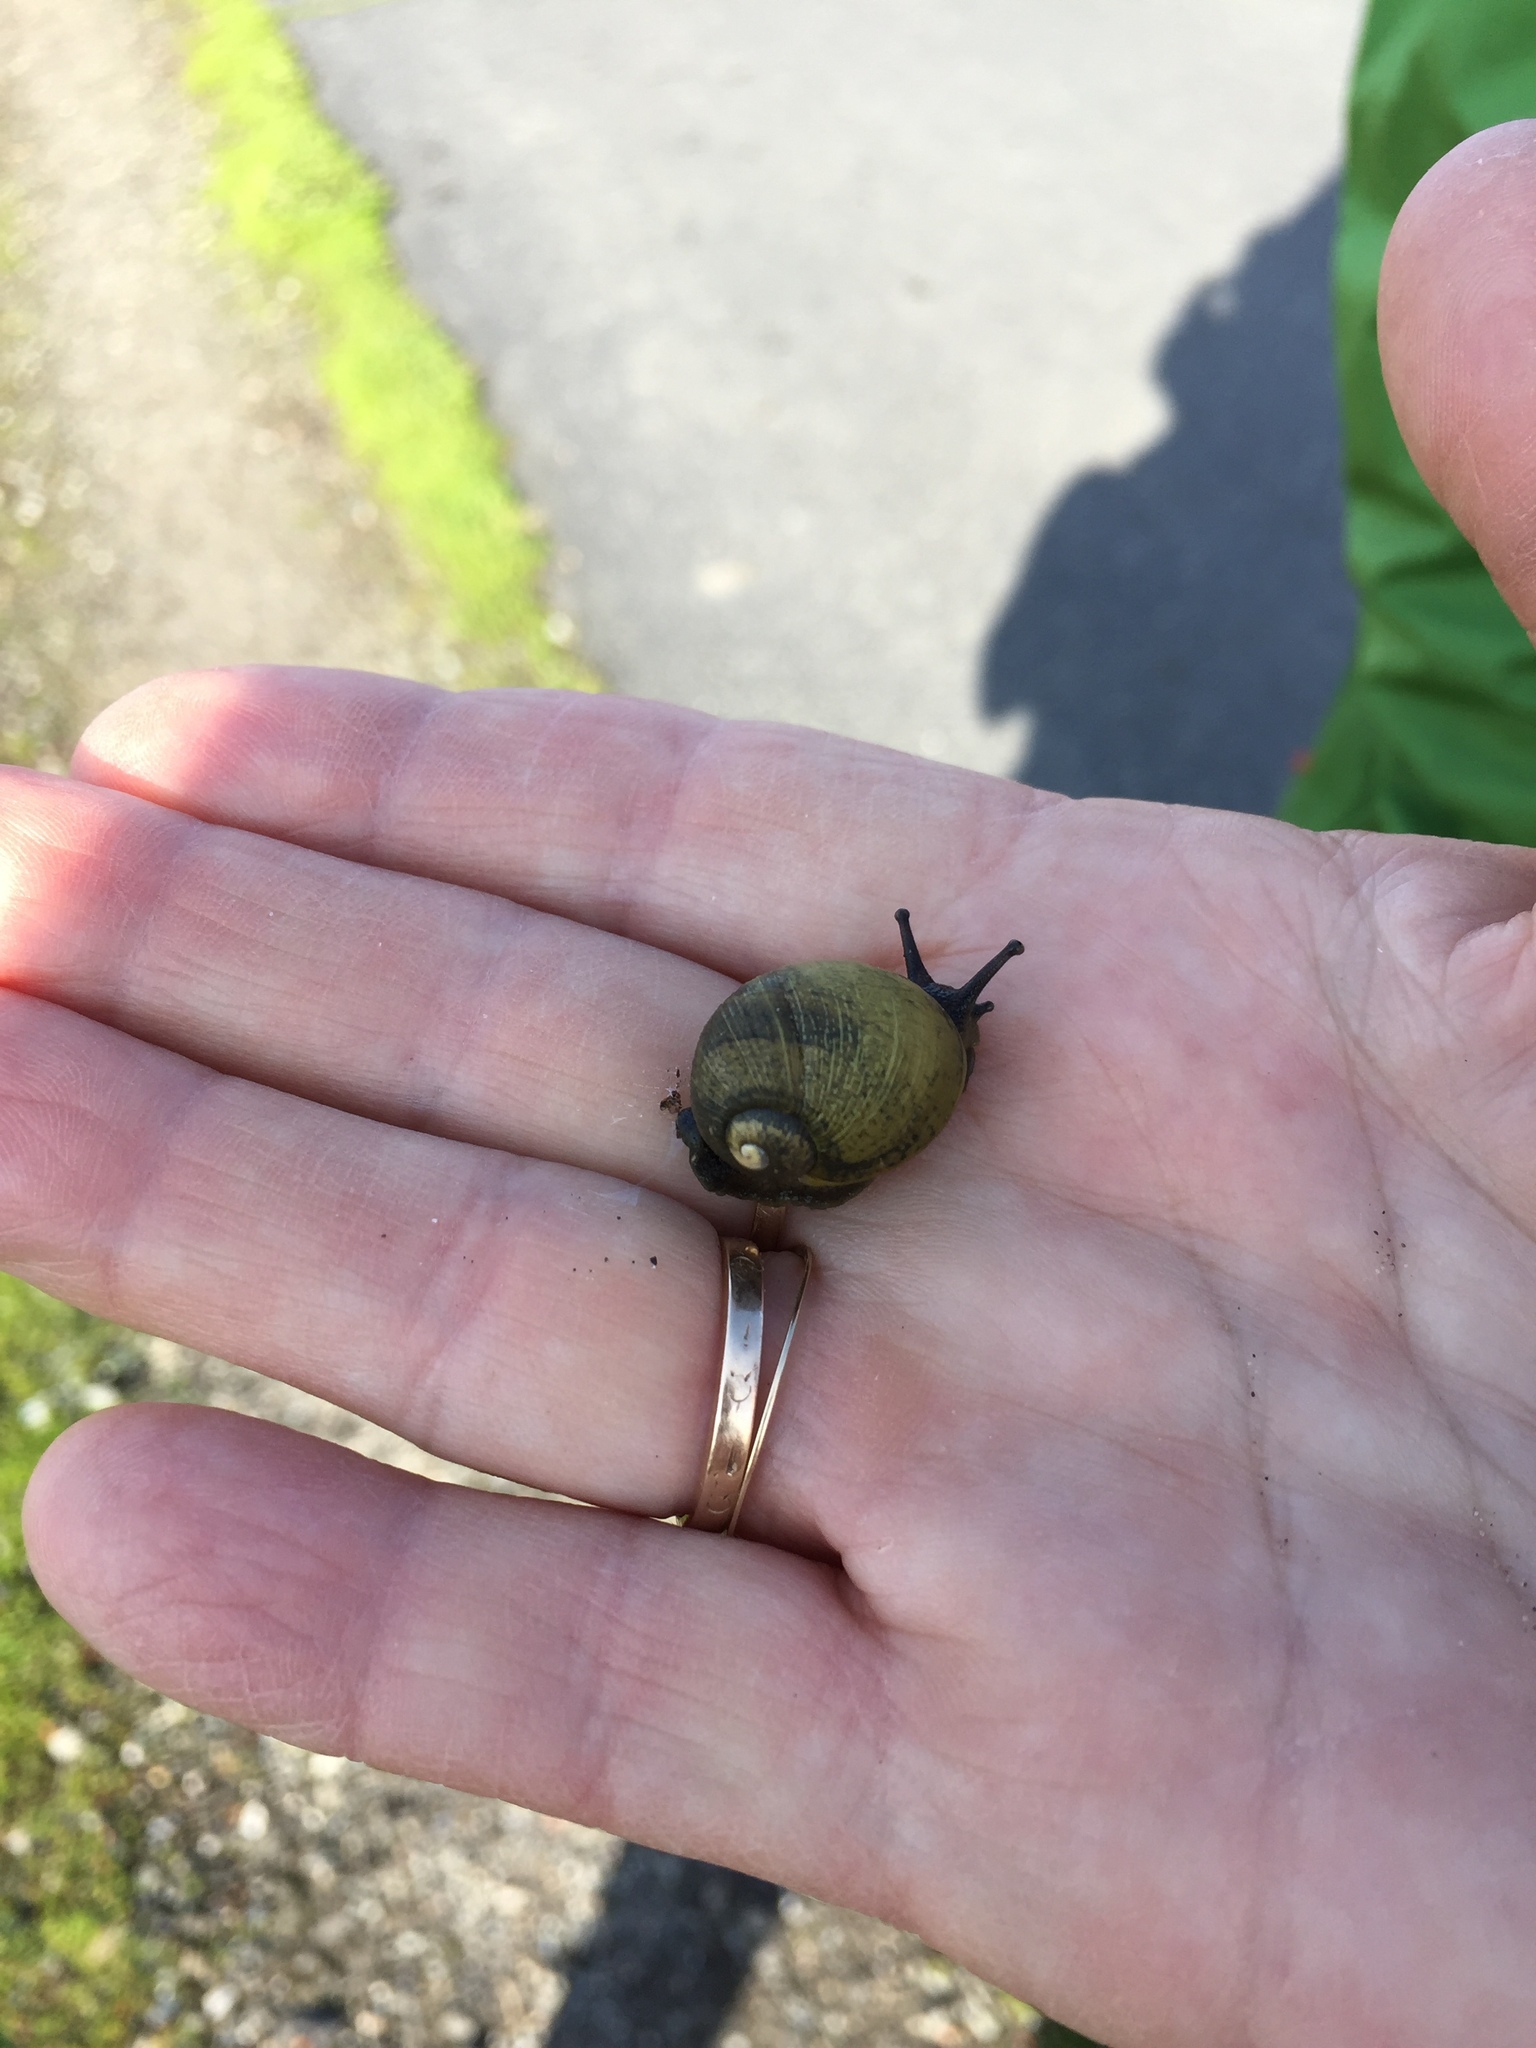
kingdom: Animalia
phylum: Mollusca
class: Gastropoda
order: Stylommatophora
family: Helicidae
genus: Cantareus
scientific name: Cantareus apertus
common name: Green gardensnail
